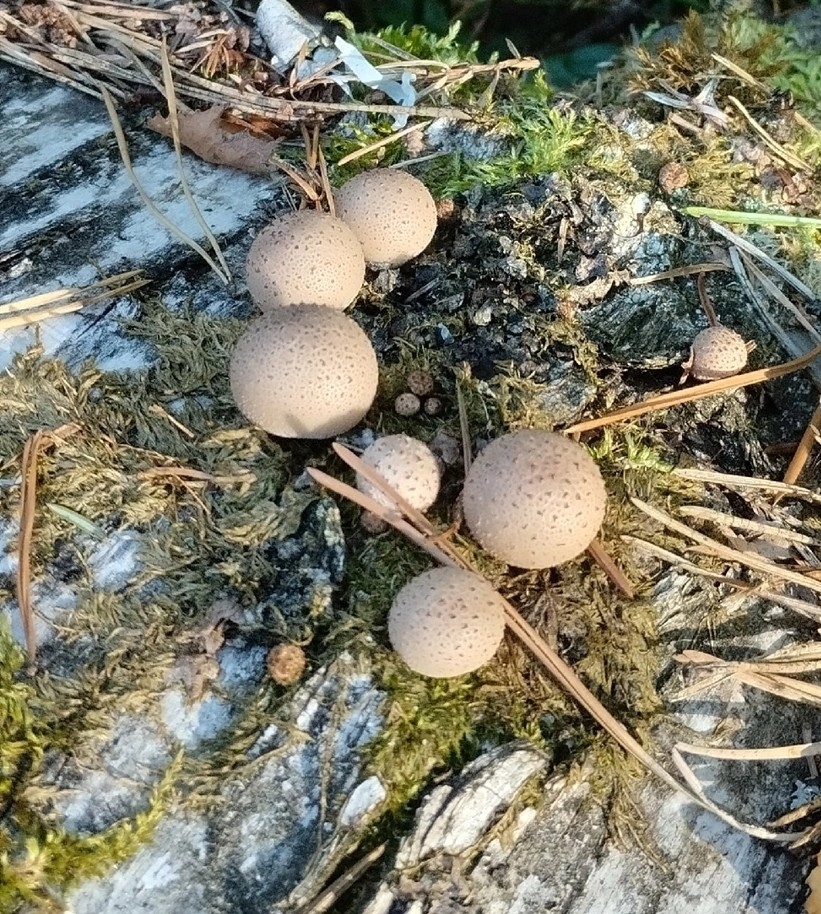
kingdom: Fungi
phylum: Basidiomycota
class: Agaricomycetes
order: Agaricales
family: Lycoperdaceae
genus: Apioperdon
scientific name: Apioperdon pyriforme
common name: Pear-shaped puffball
